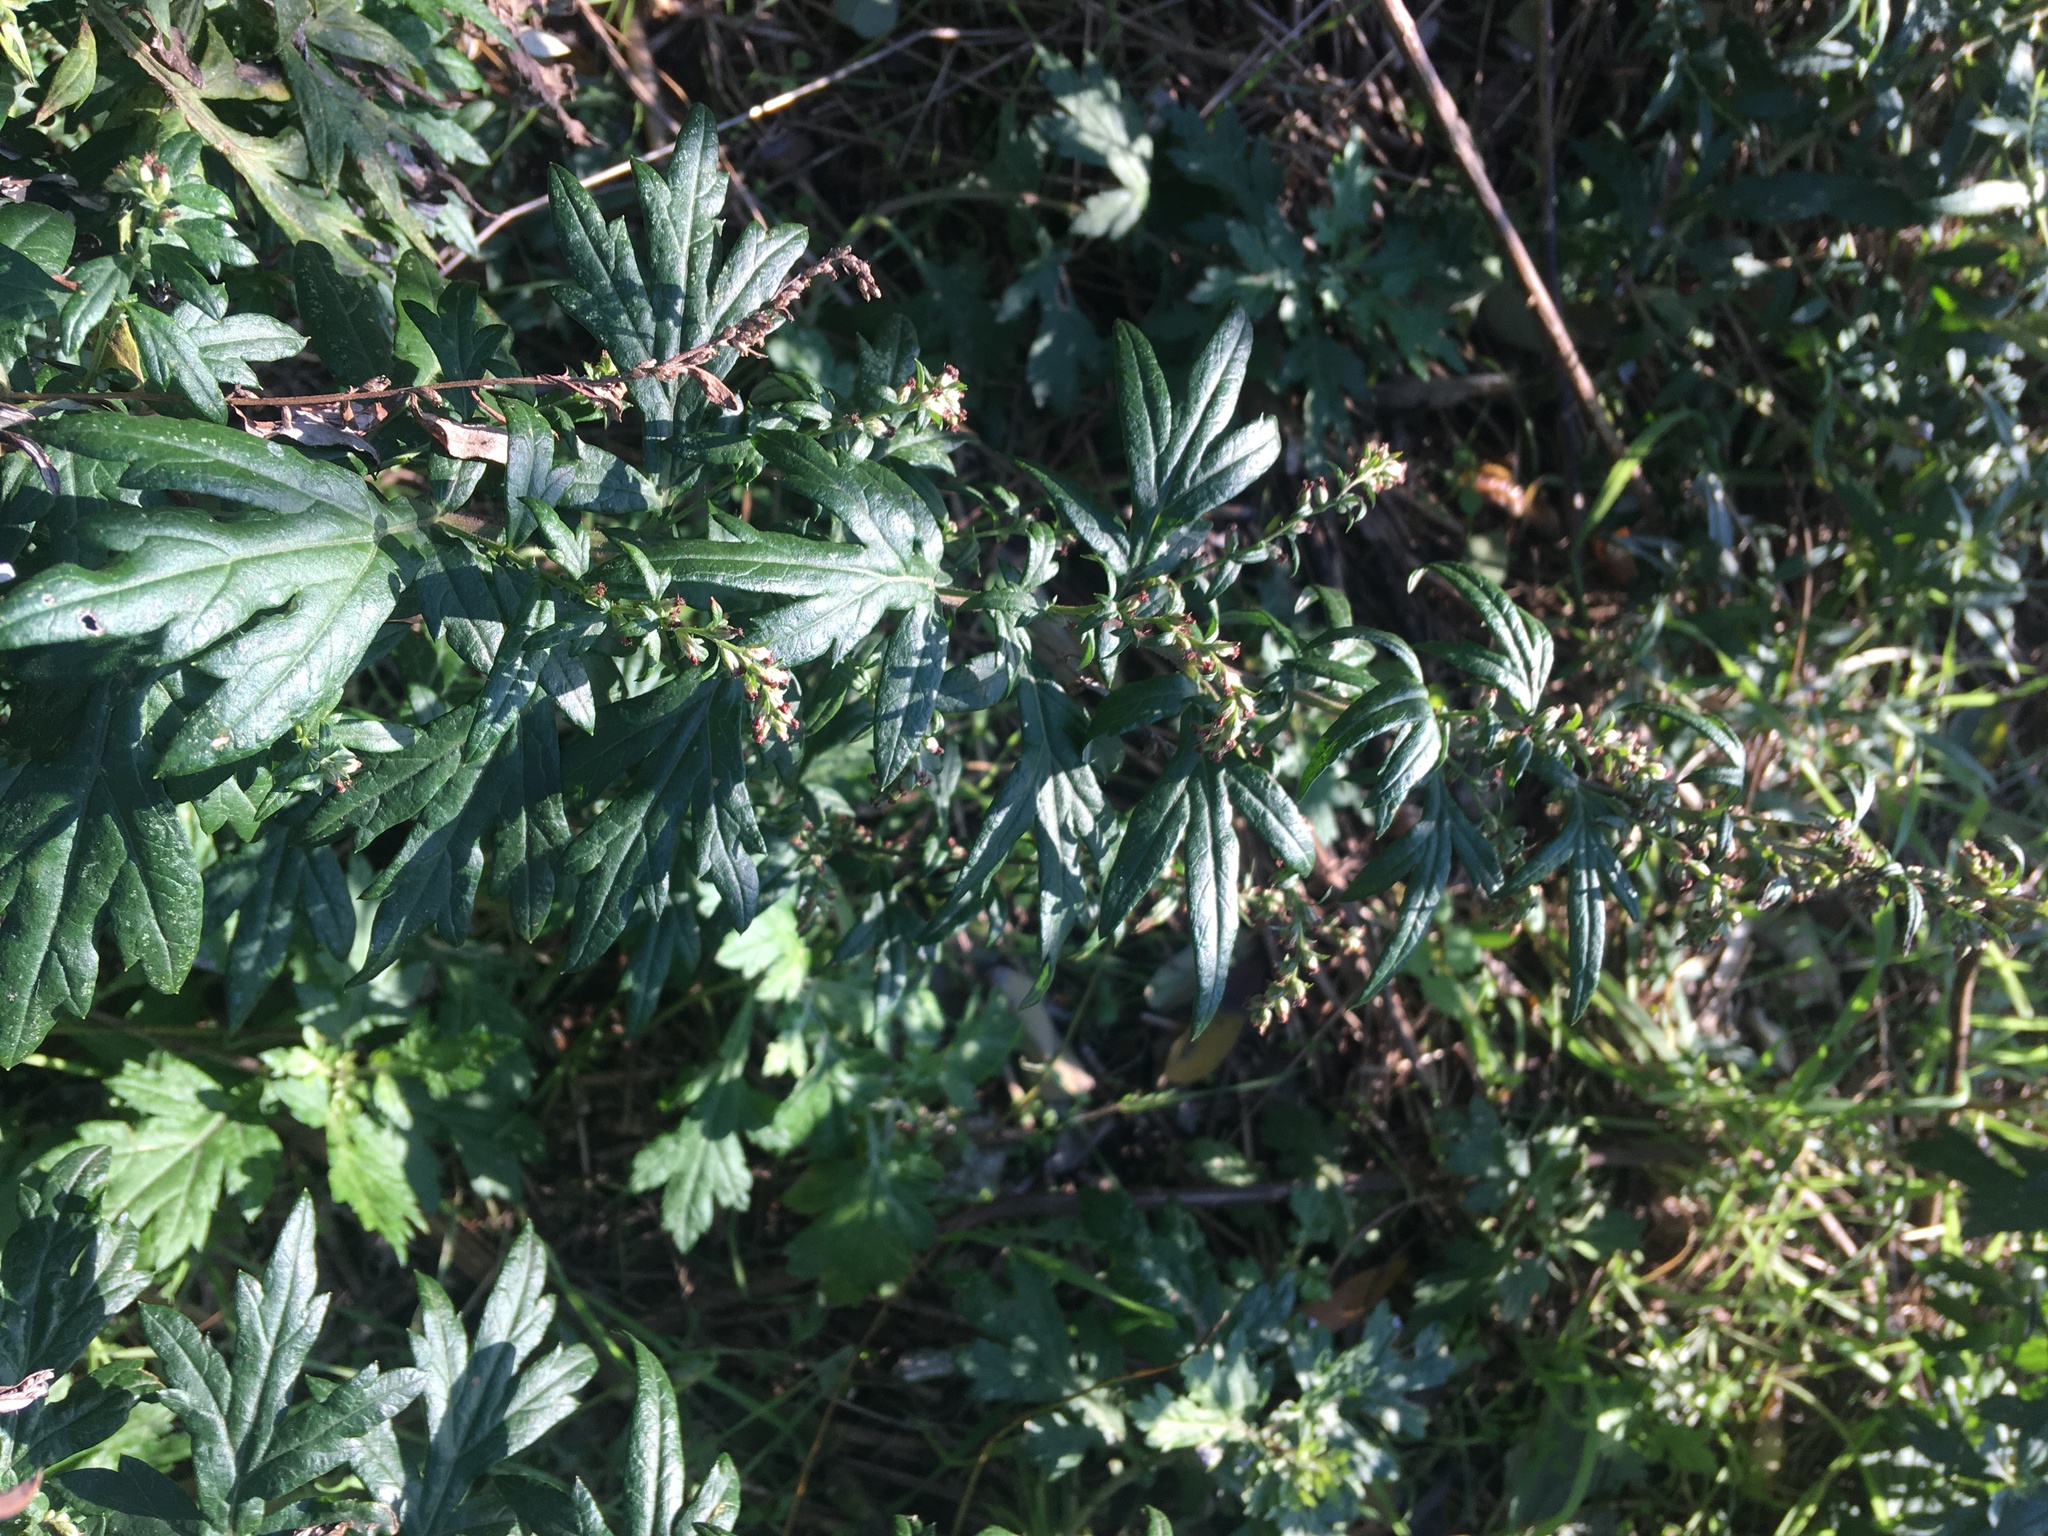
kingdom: Plantae
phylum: Tracheophyta
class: Magnoliopsida
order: Asterales
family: Asteraceae
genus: Artemisia
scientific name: Artemisia vulgaris
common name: Mugwort
